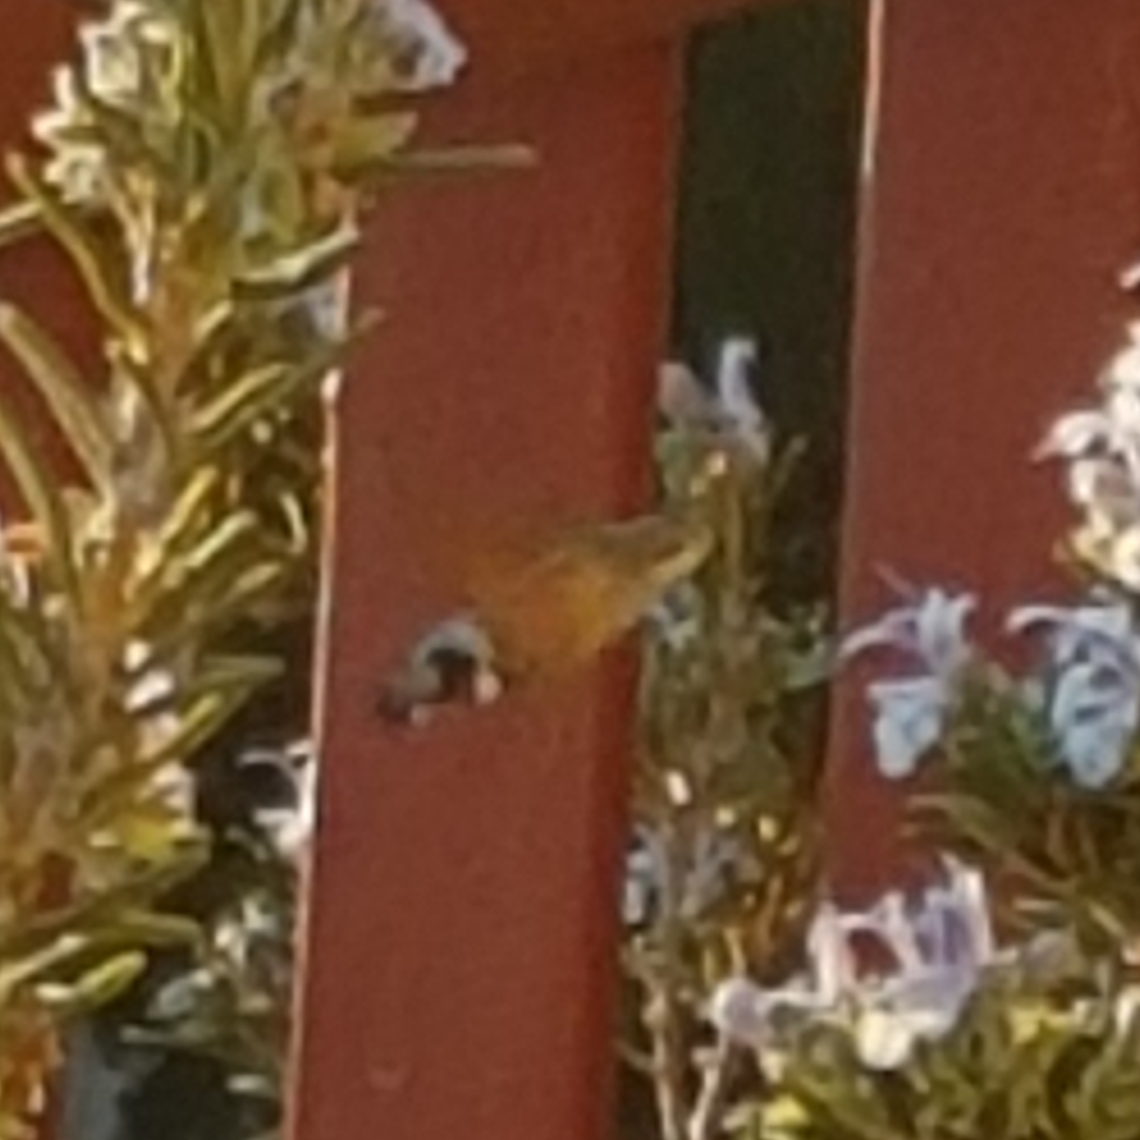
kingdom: Animalia
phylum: Arthropoda
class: Insecta
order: Lepidoptera
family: Sphingidae
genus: Macroglossum
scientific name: Macroglossum stellatarum
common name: Humming-bird hawk-moth
